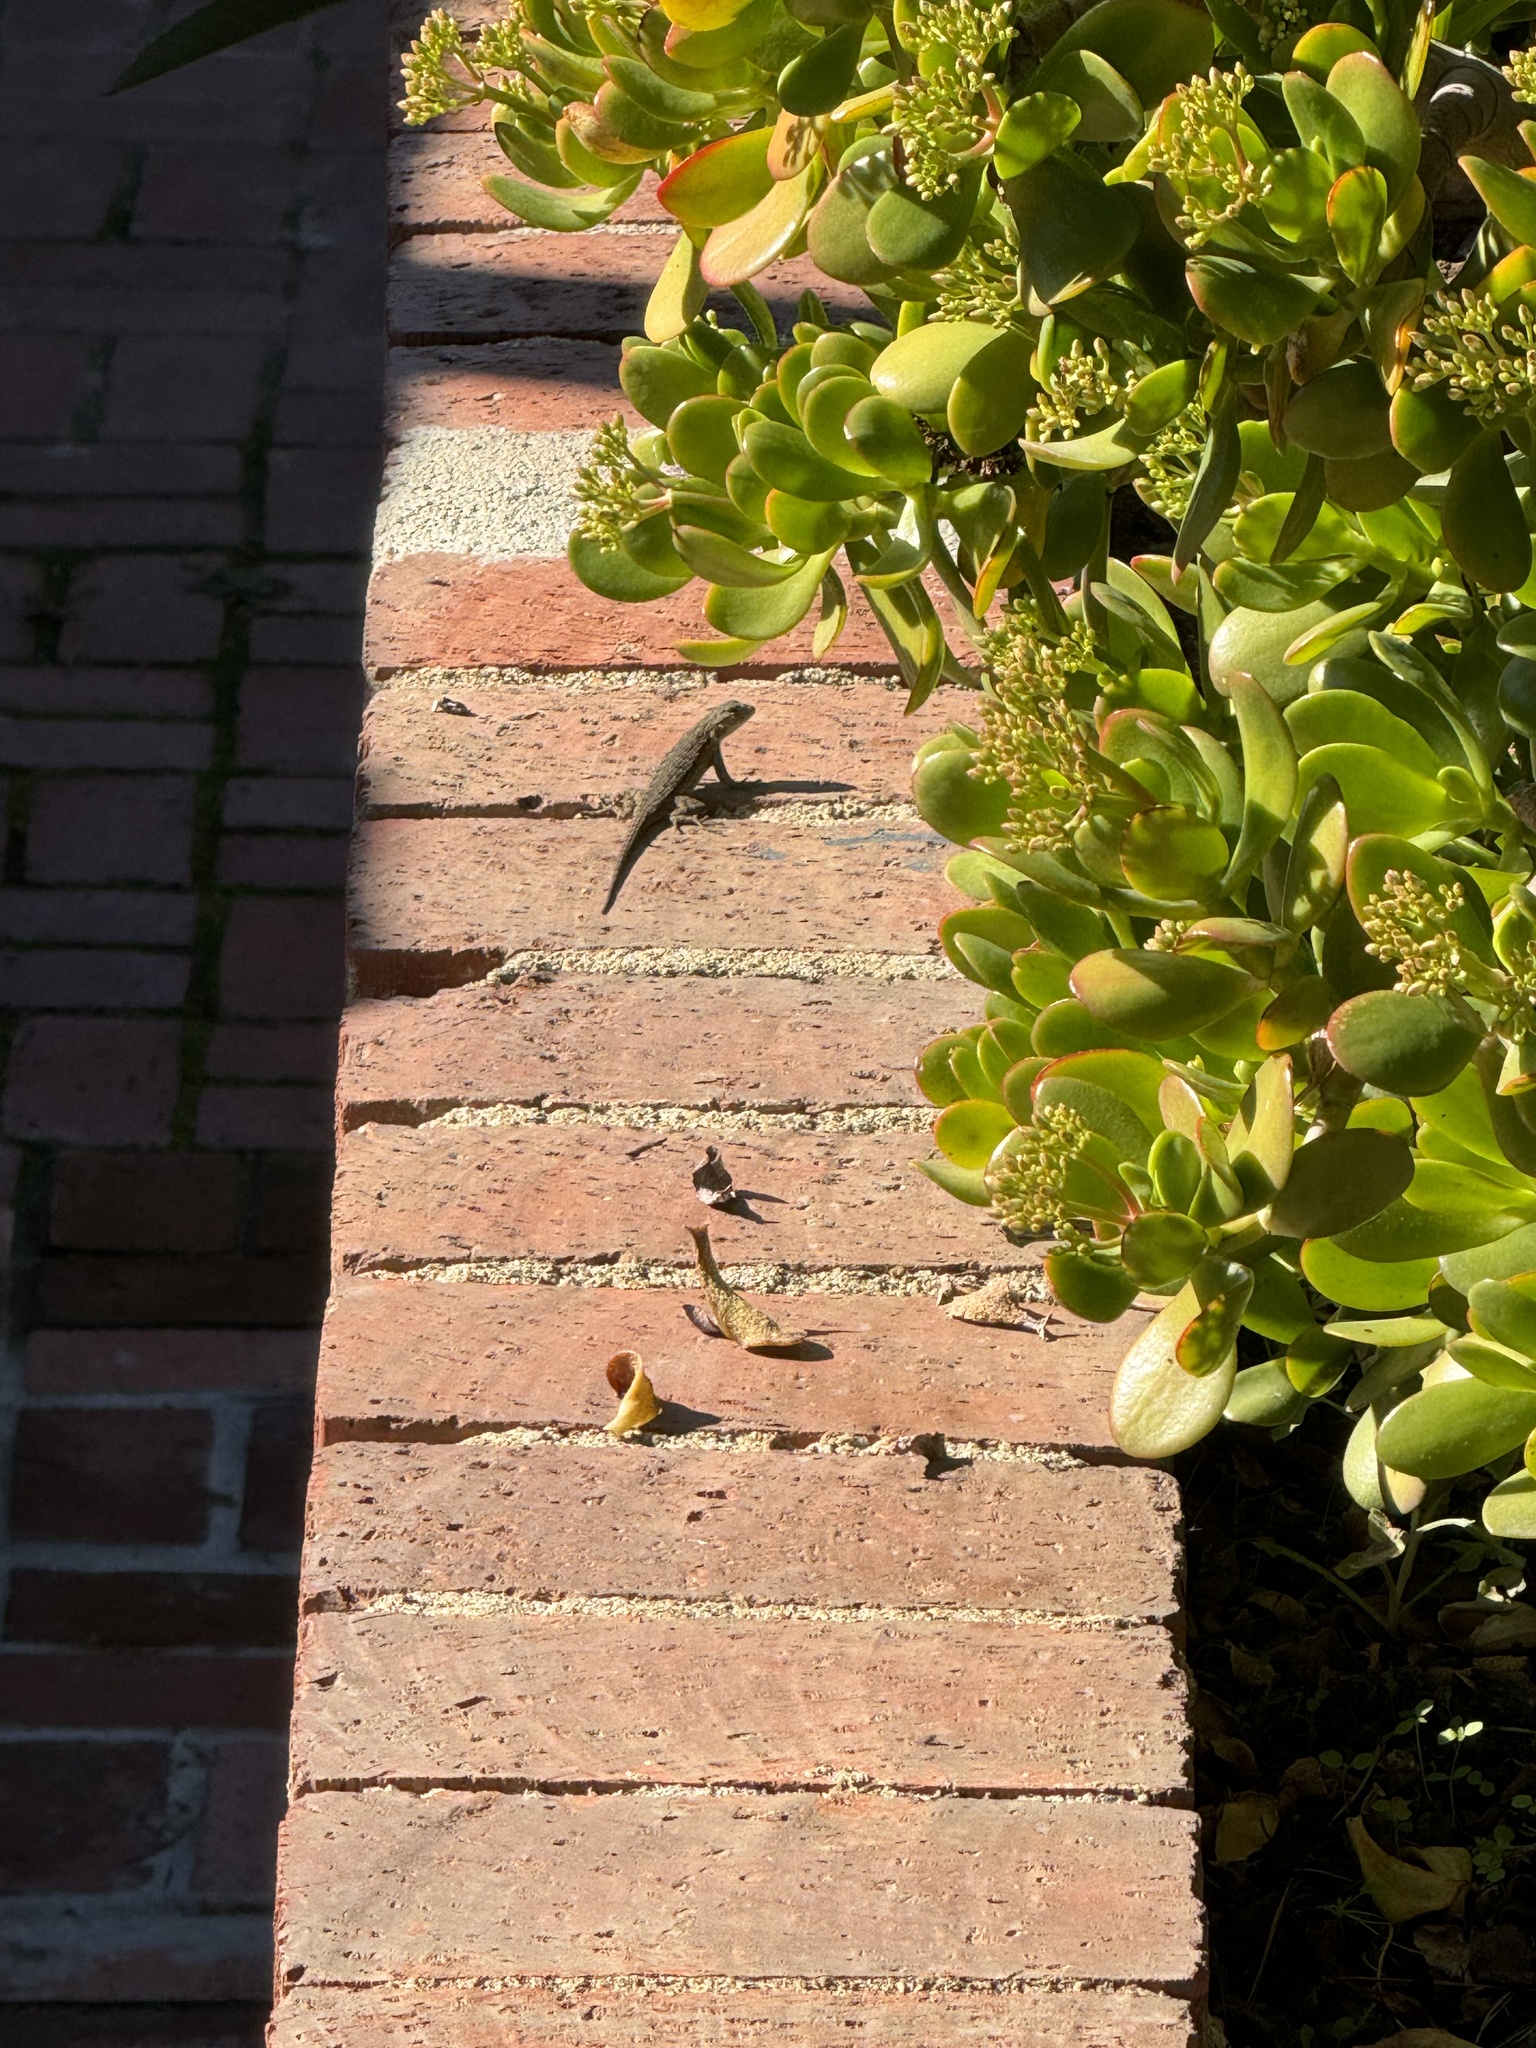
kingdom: Animalia
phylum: Chordata
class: Squamata
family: Phrynosomatidae
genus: Sceloporus
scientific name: Sceloporus occidentalis
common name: Western fence lizard
